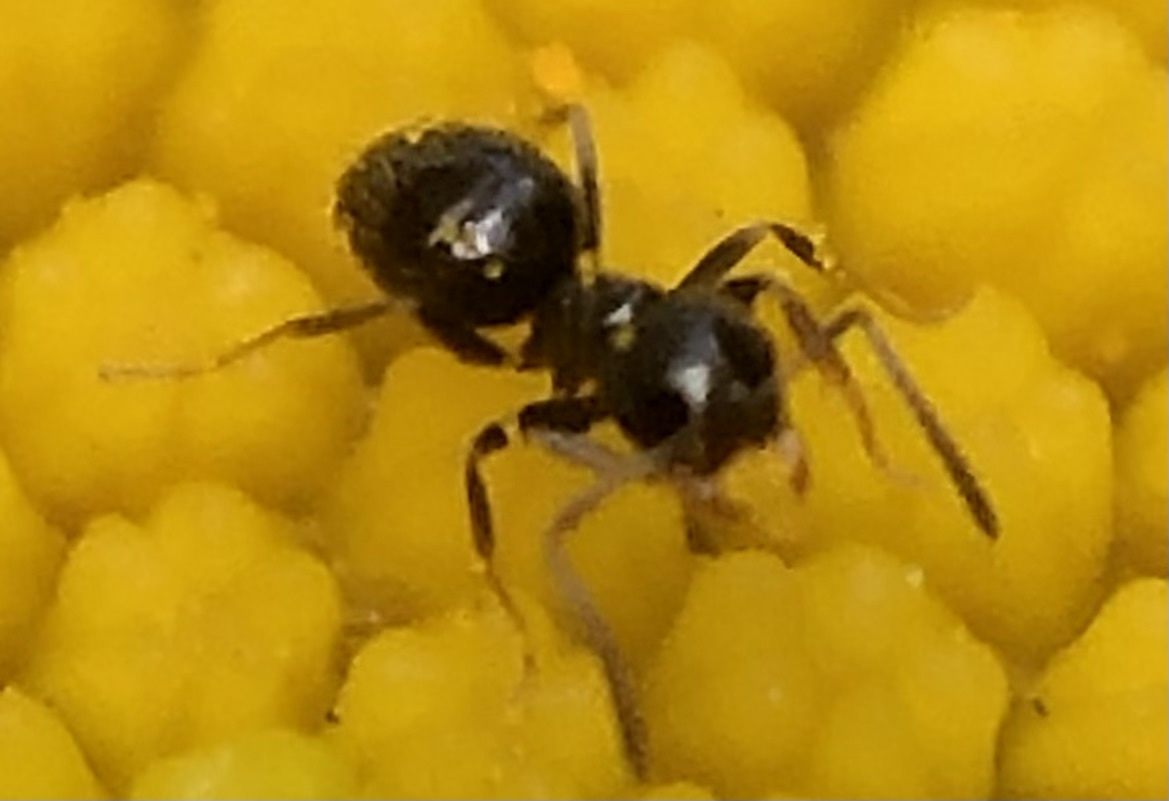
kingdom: Animalia
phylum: Arthropoda
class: Insecta
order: Hymenoptera
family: Formicidae
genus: Brachymyrmex
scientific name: Brachymyrmex patagonicus
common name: Dark rover ant
